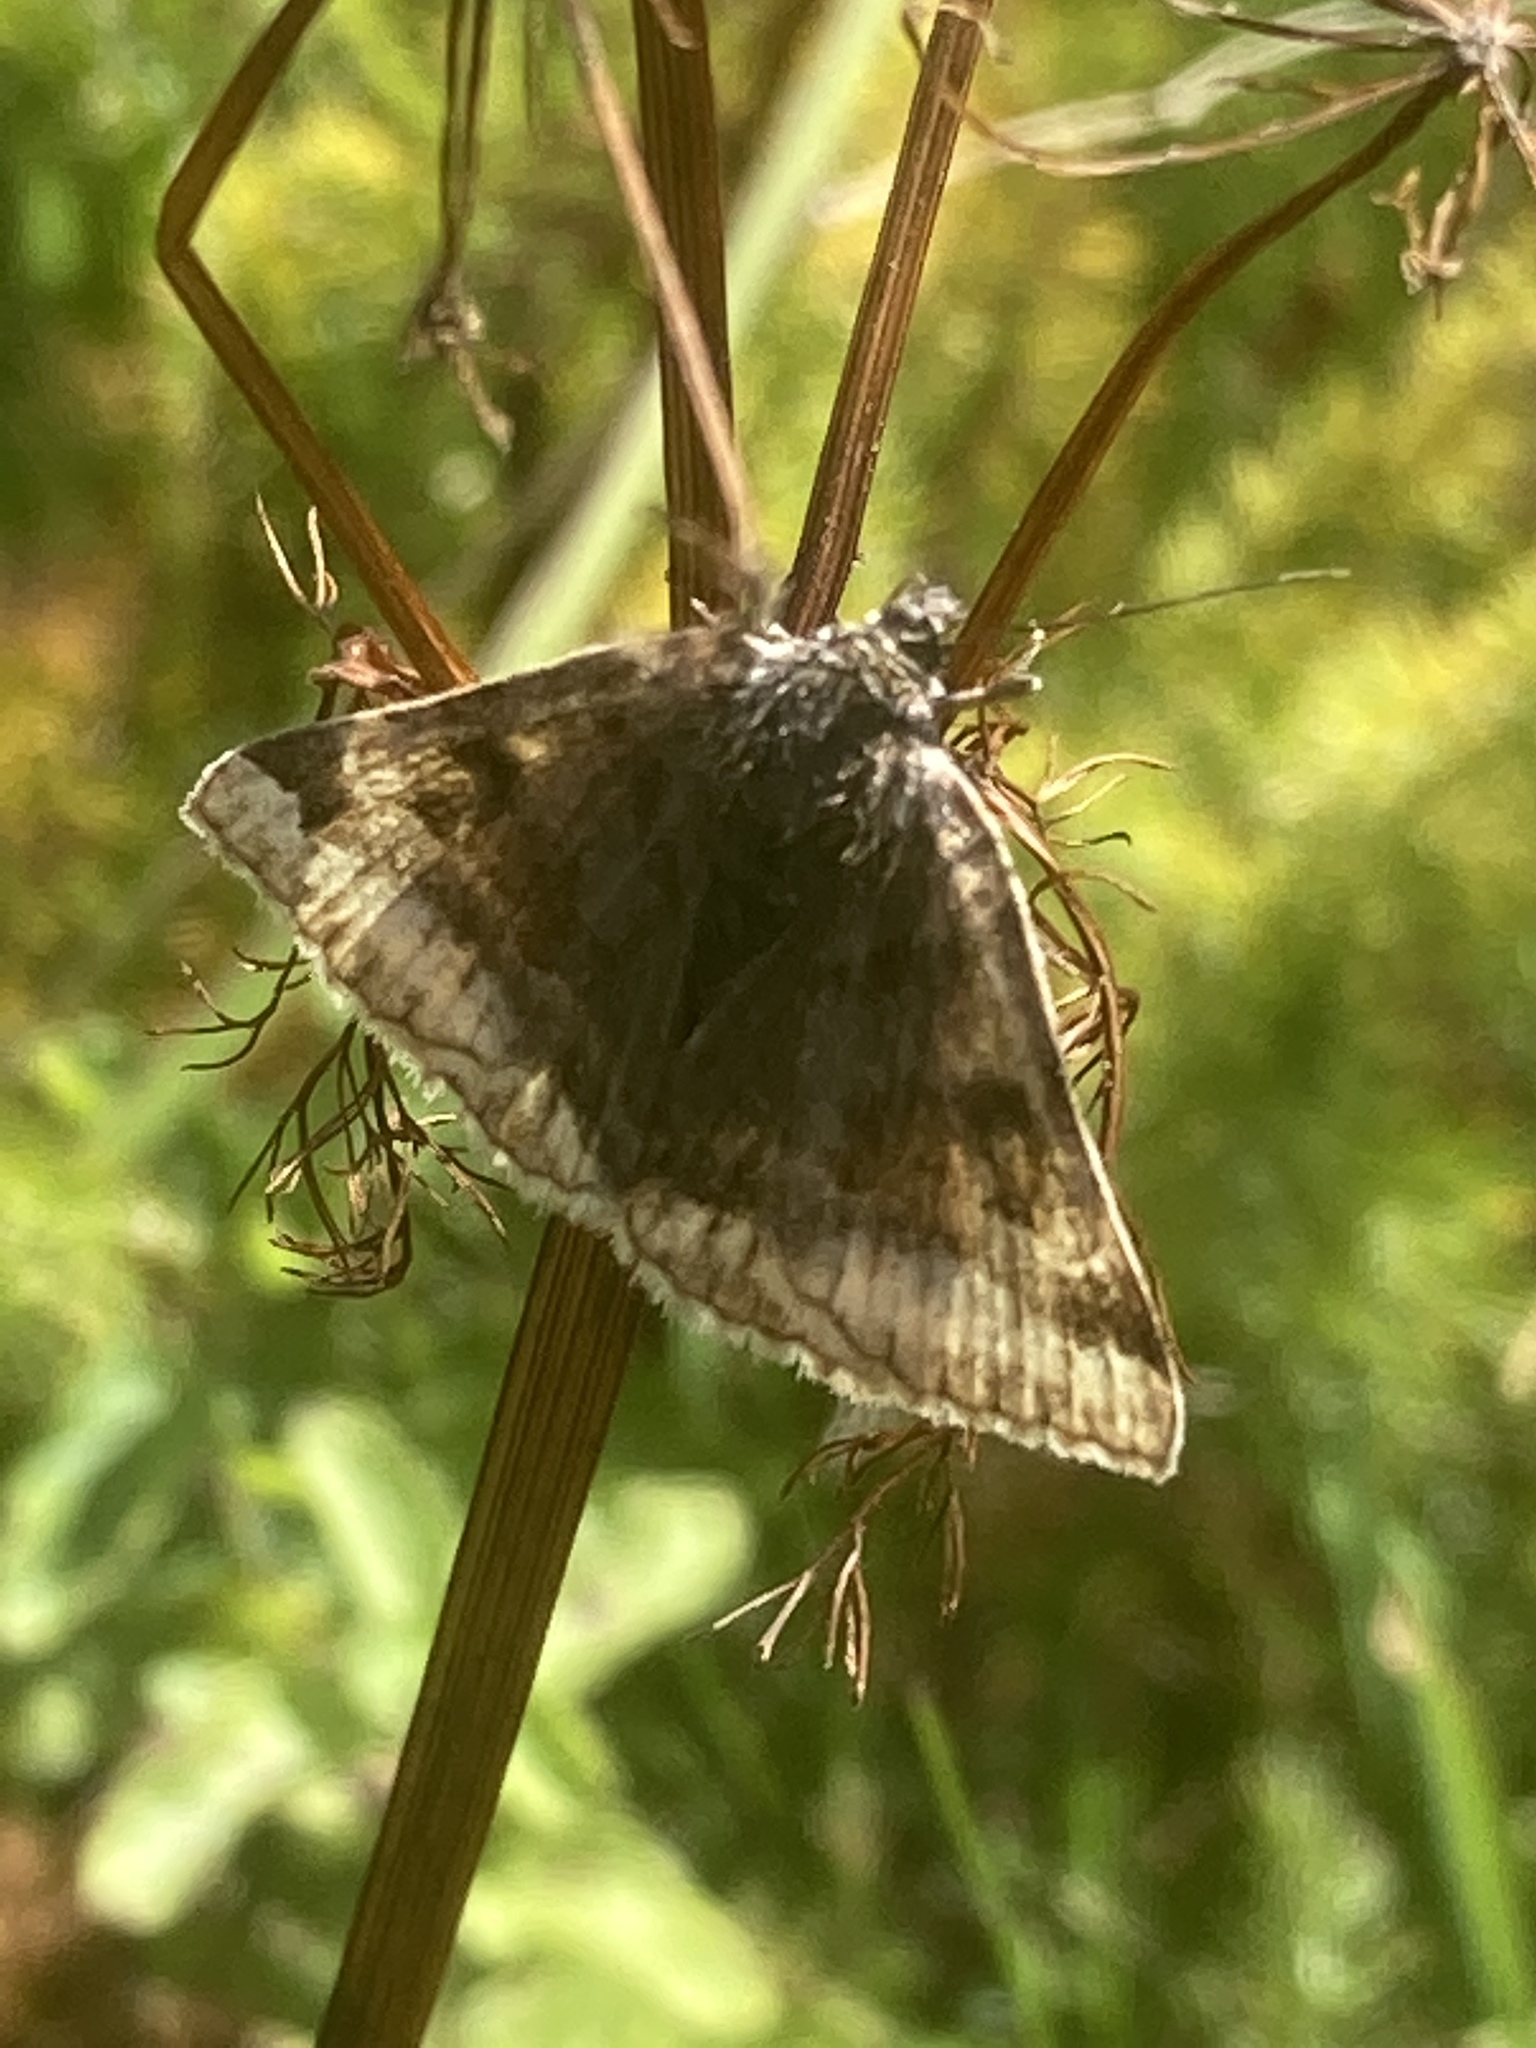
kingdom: Animalia
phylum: Arthropoda
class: Insecta
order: Lepidoptera
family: Erebidae
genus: Euclidia
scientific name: Euclidia glyphica
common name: Burnet companion
